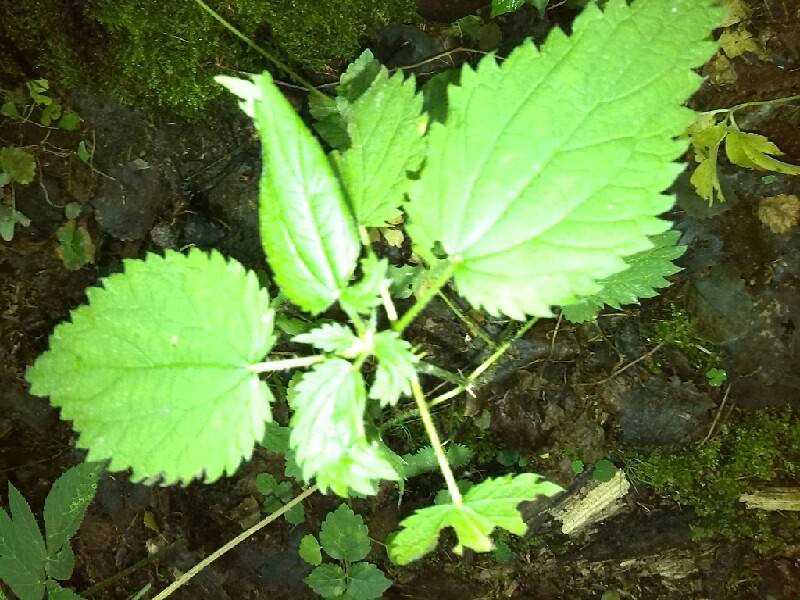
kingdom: Plantae
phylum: Tracheophyta
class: Magnoliopsida
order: Rosales
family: Urticaceae
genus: Urtica
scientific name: Urtica dioica
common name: Common nettle
